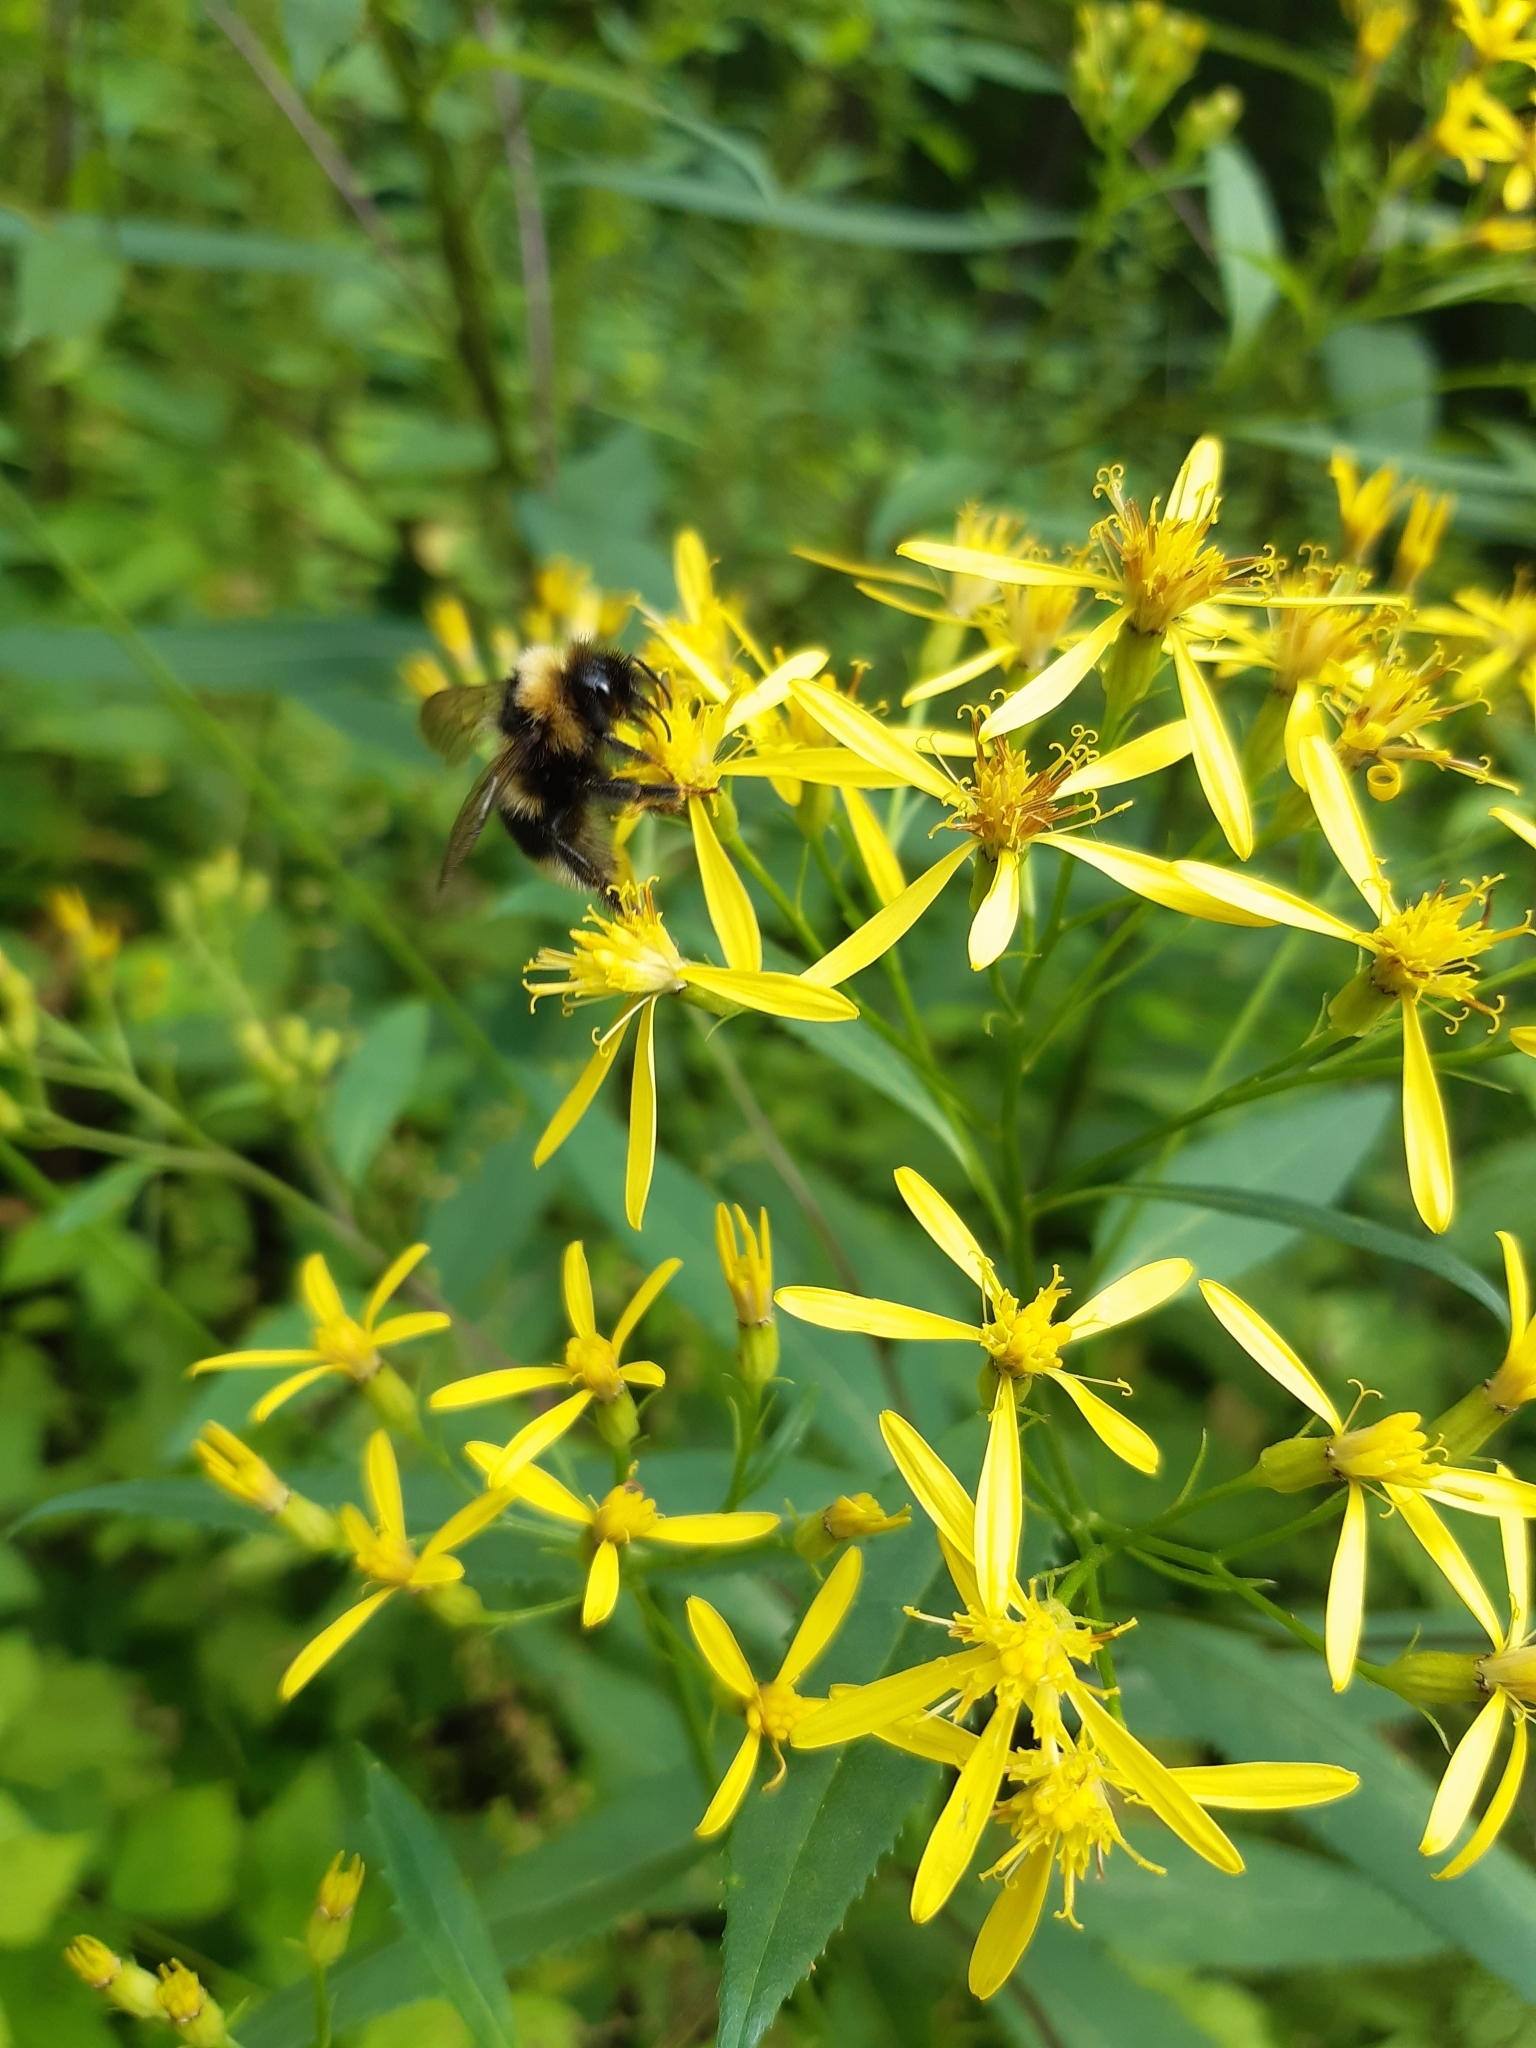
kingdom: Plantae
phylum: Tracheophyta
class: Magnoliopsida
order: Asterales
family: Asteraceae
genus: Senecio
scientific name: Senecio ovatus
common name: Wood ragwort
